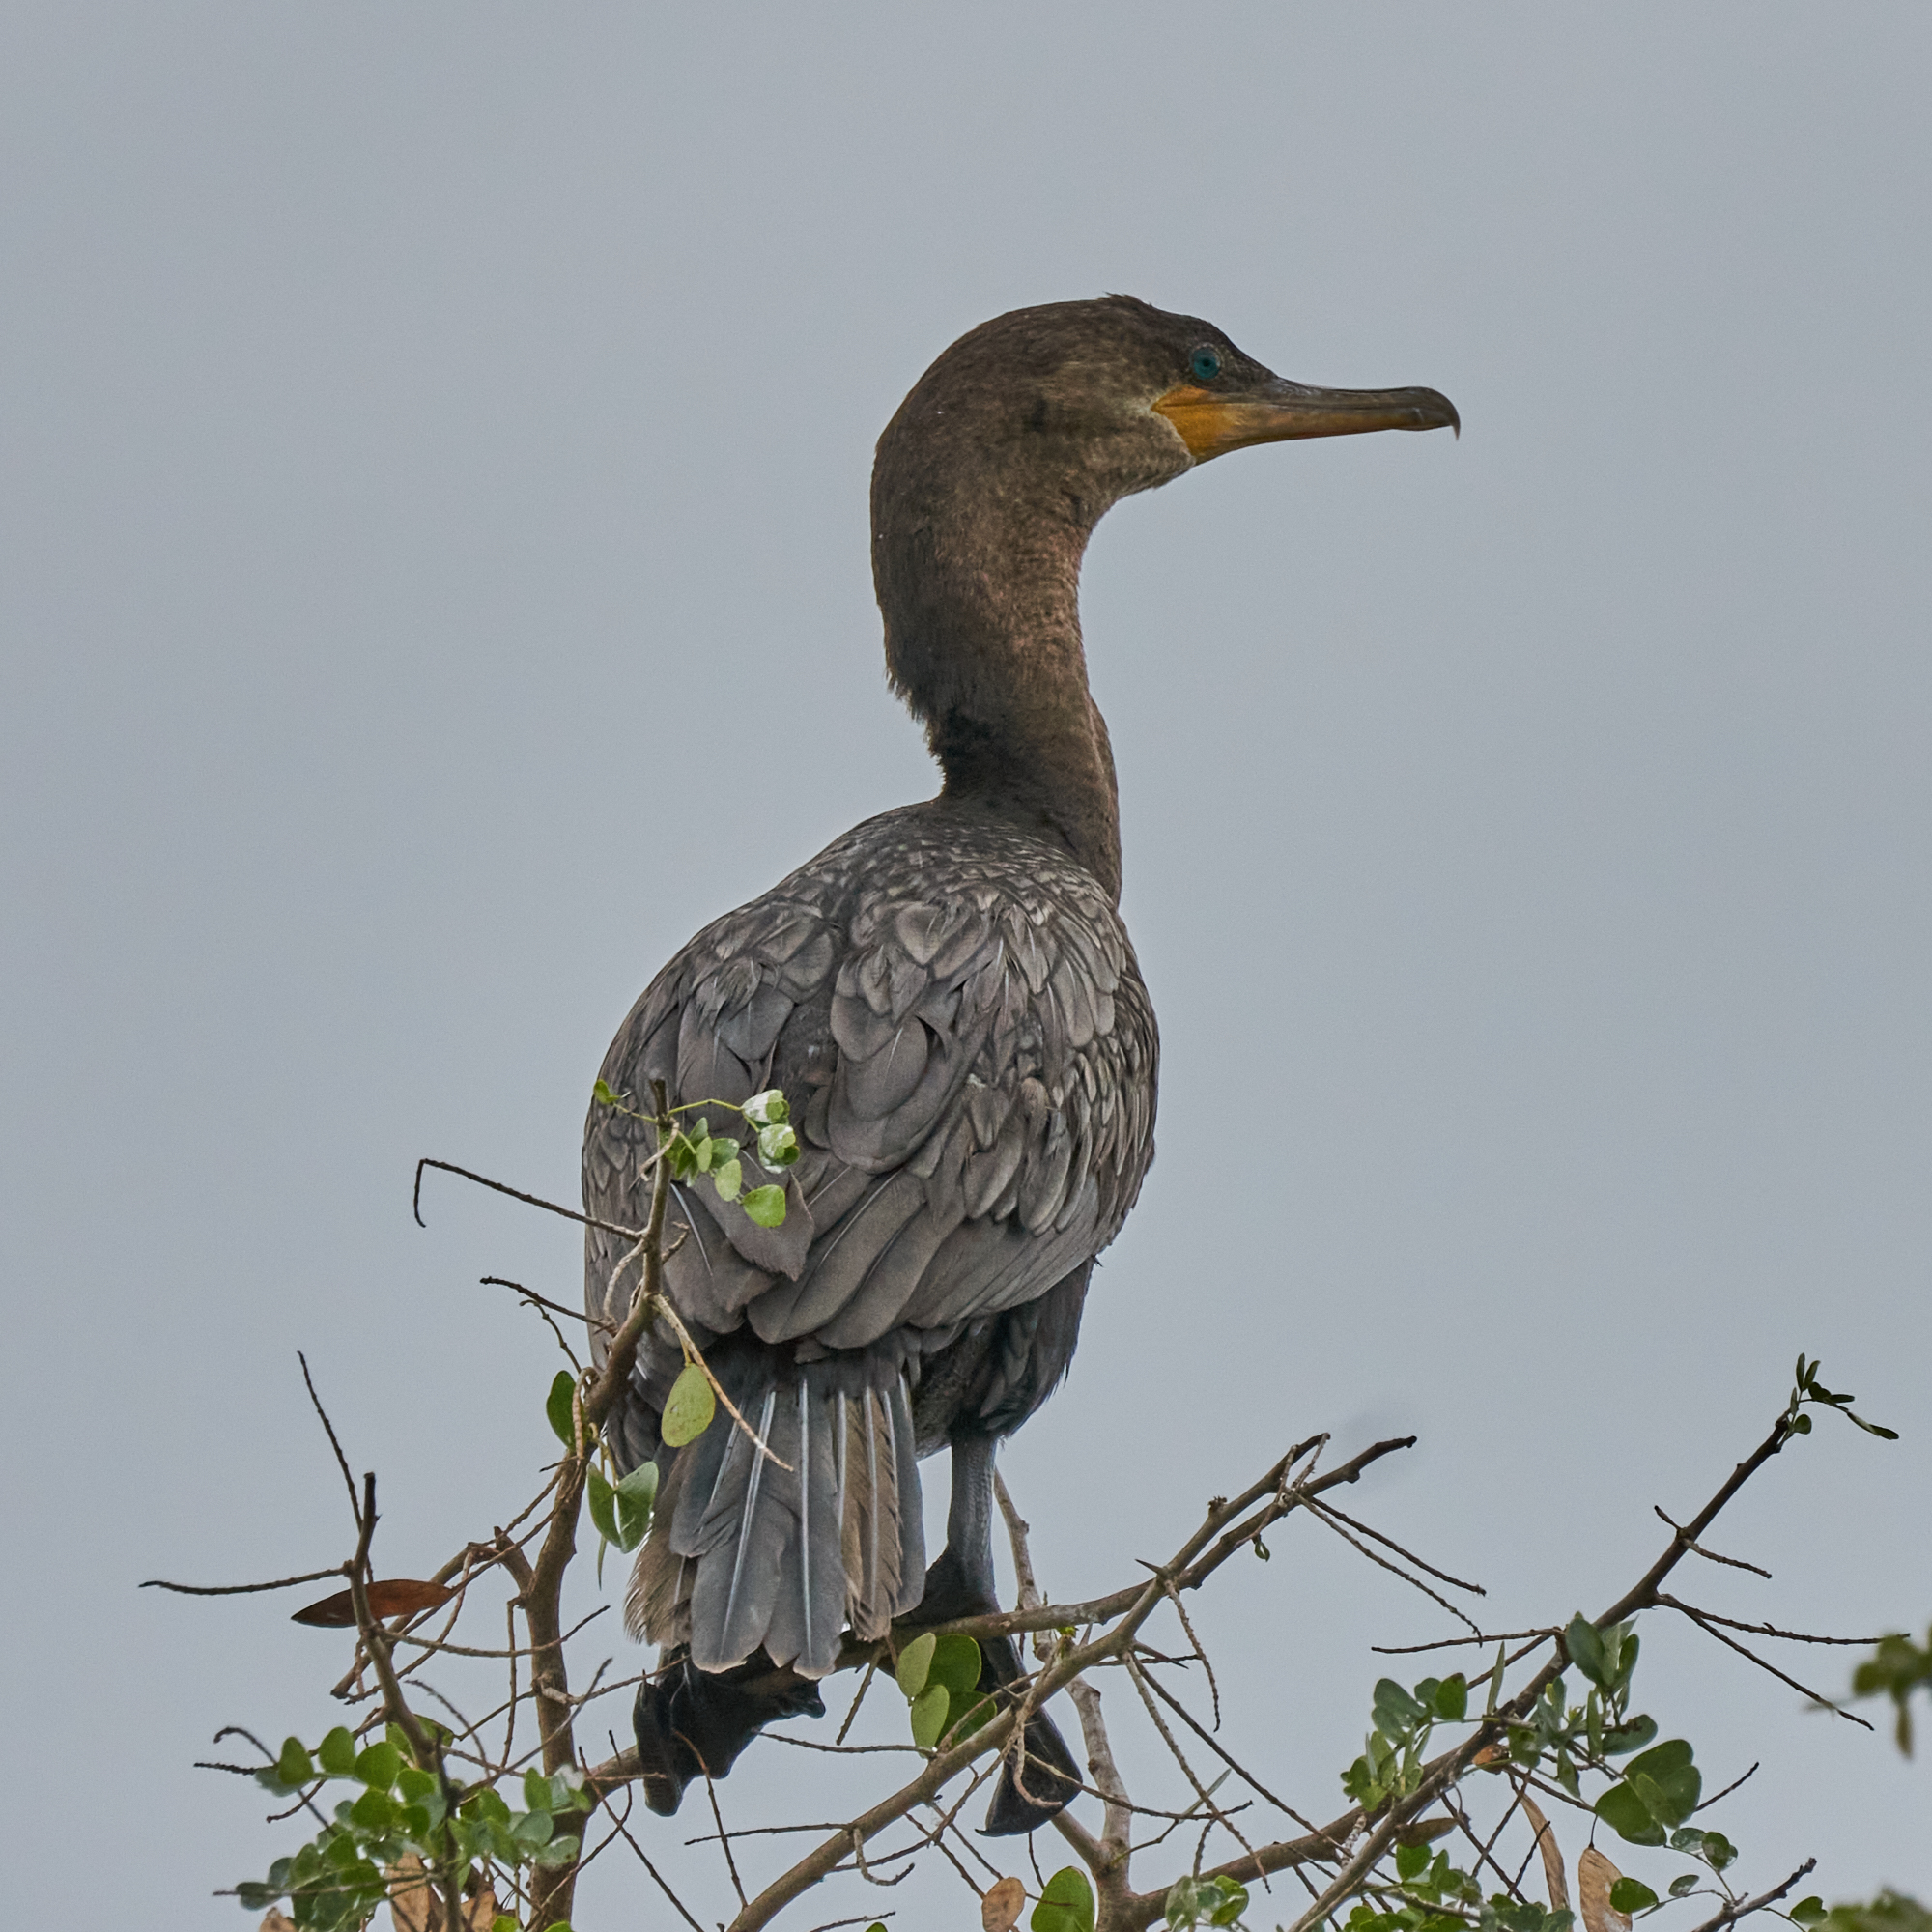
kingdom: Animalia
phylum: Chordata
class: Aves
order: Suliformes
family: Phalacrocoracidae
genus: Phalacrocorax
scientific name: Phalacrocorax brasilianus
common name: Neotropic cormorant
